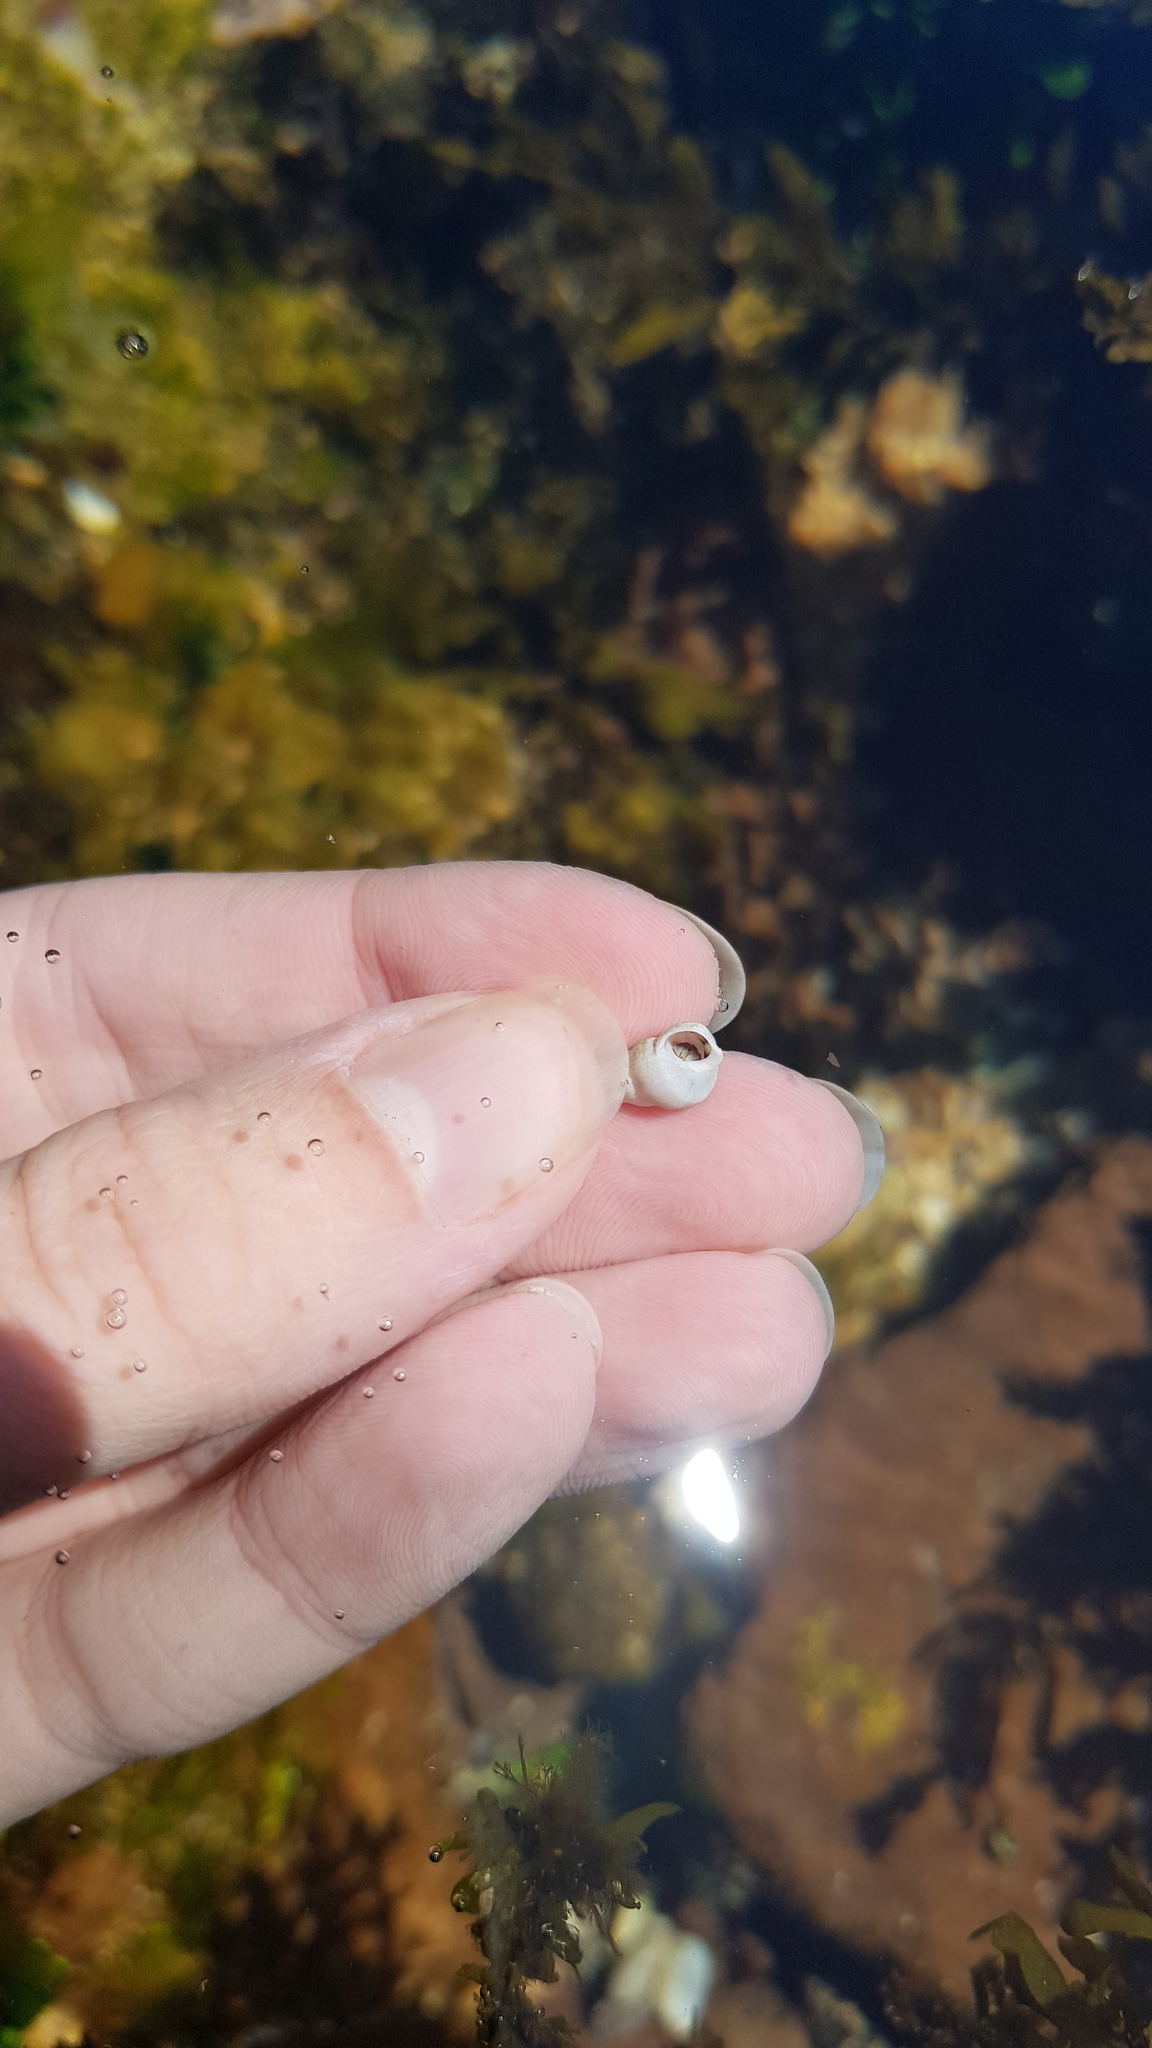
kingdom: Animalia
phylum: Arthropoda
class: Malacostraca
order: Decapoda
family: Paguridae
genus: Pagurixus
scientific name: Pagurixus jerviensis
